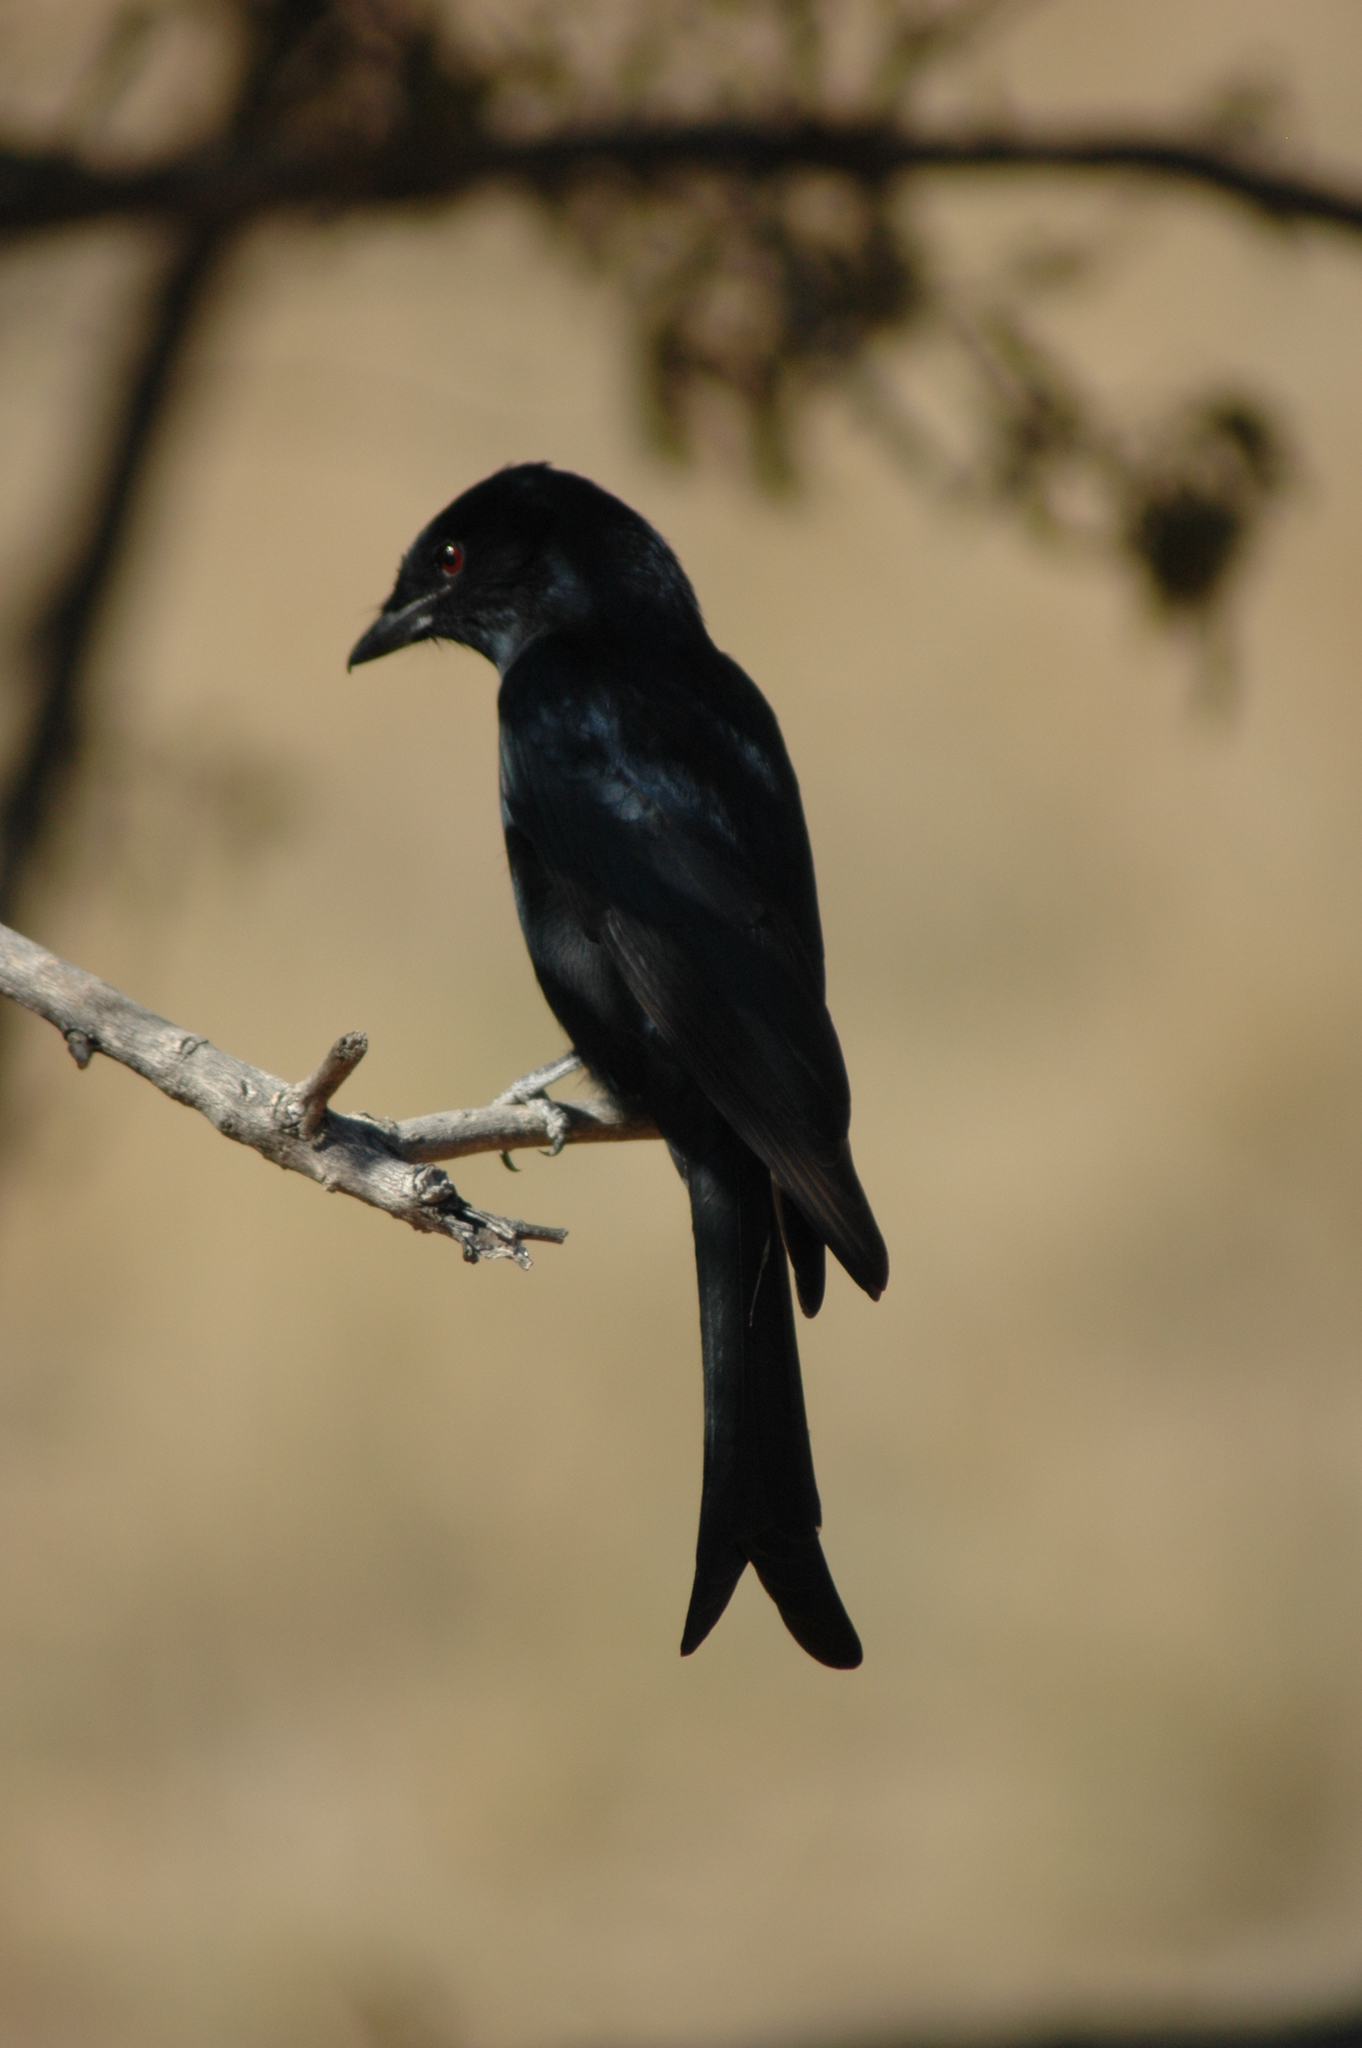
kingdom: Animalia
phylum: Chordata
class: Aves
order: Passeriformes
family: Dicruridae
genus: Dicrurus
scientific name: Dicrurus adsimilis
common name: Fork-tailed drongo
